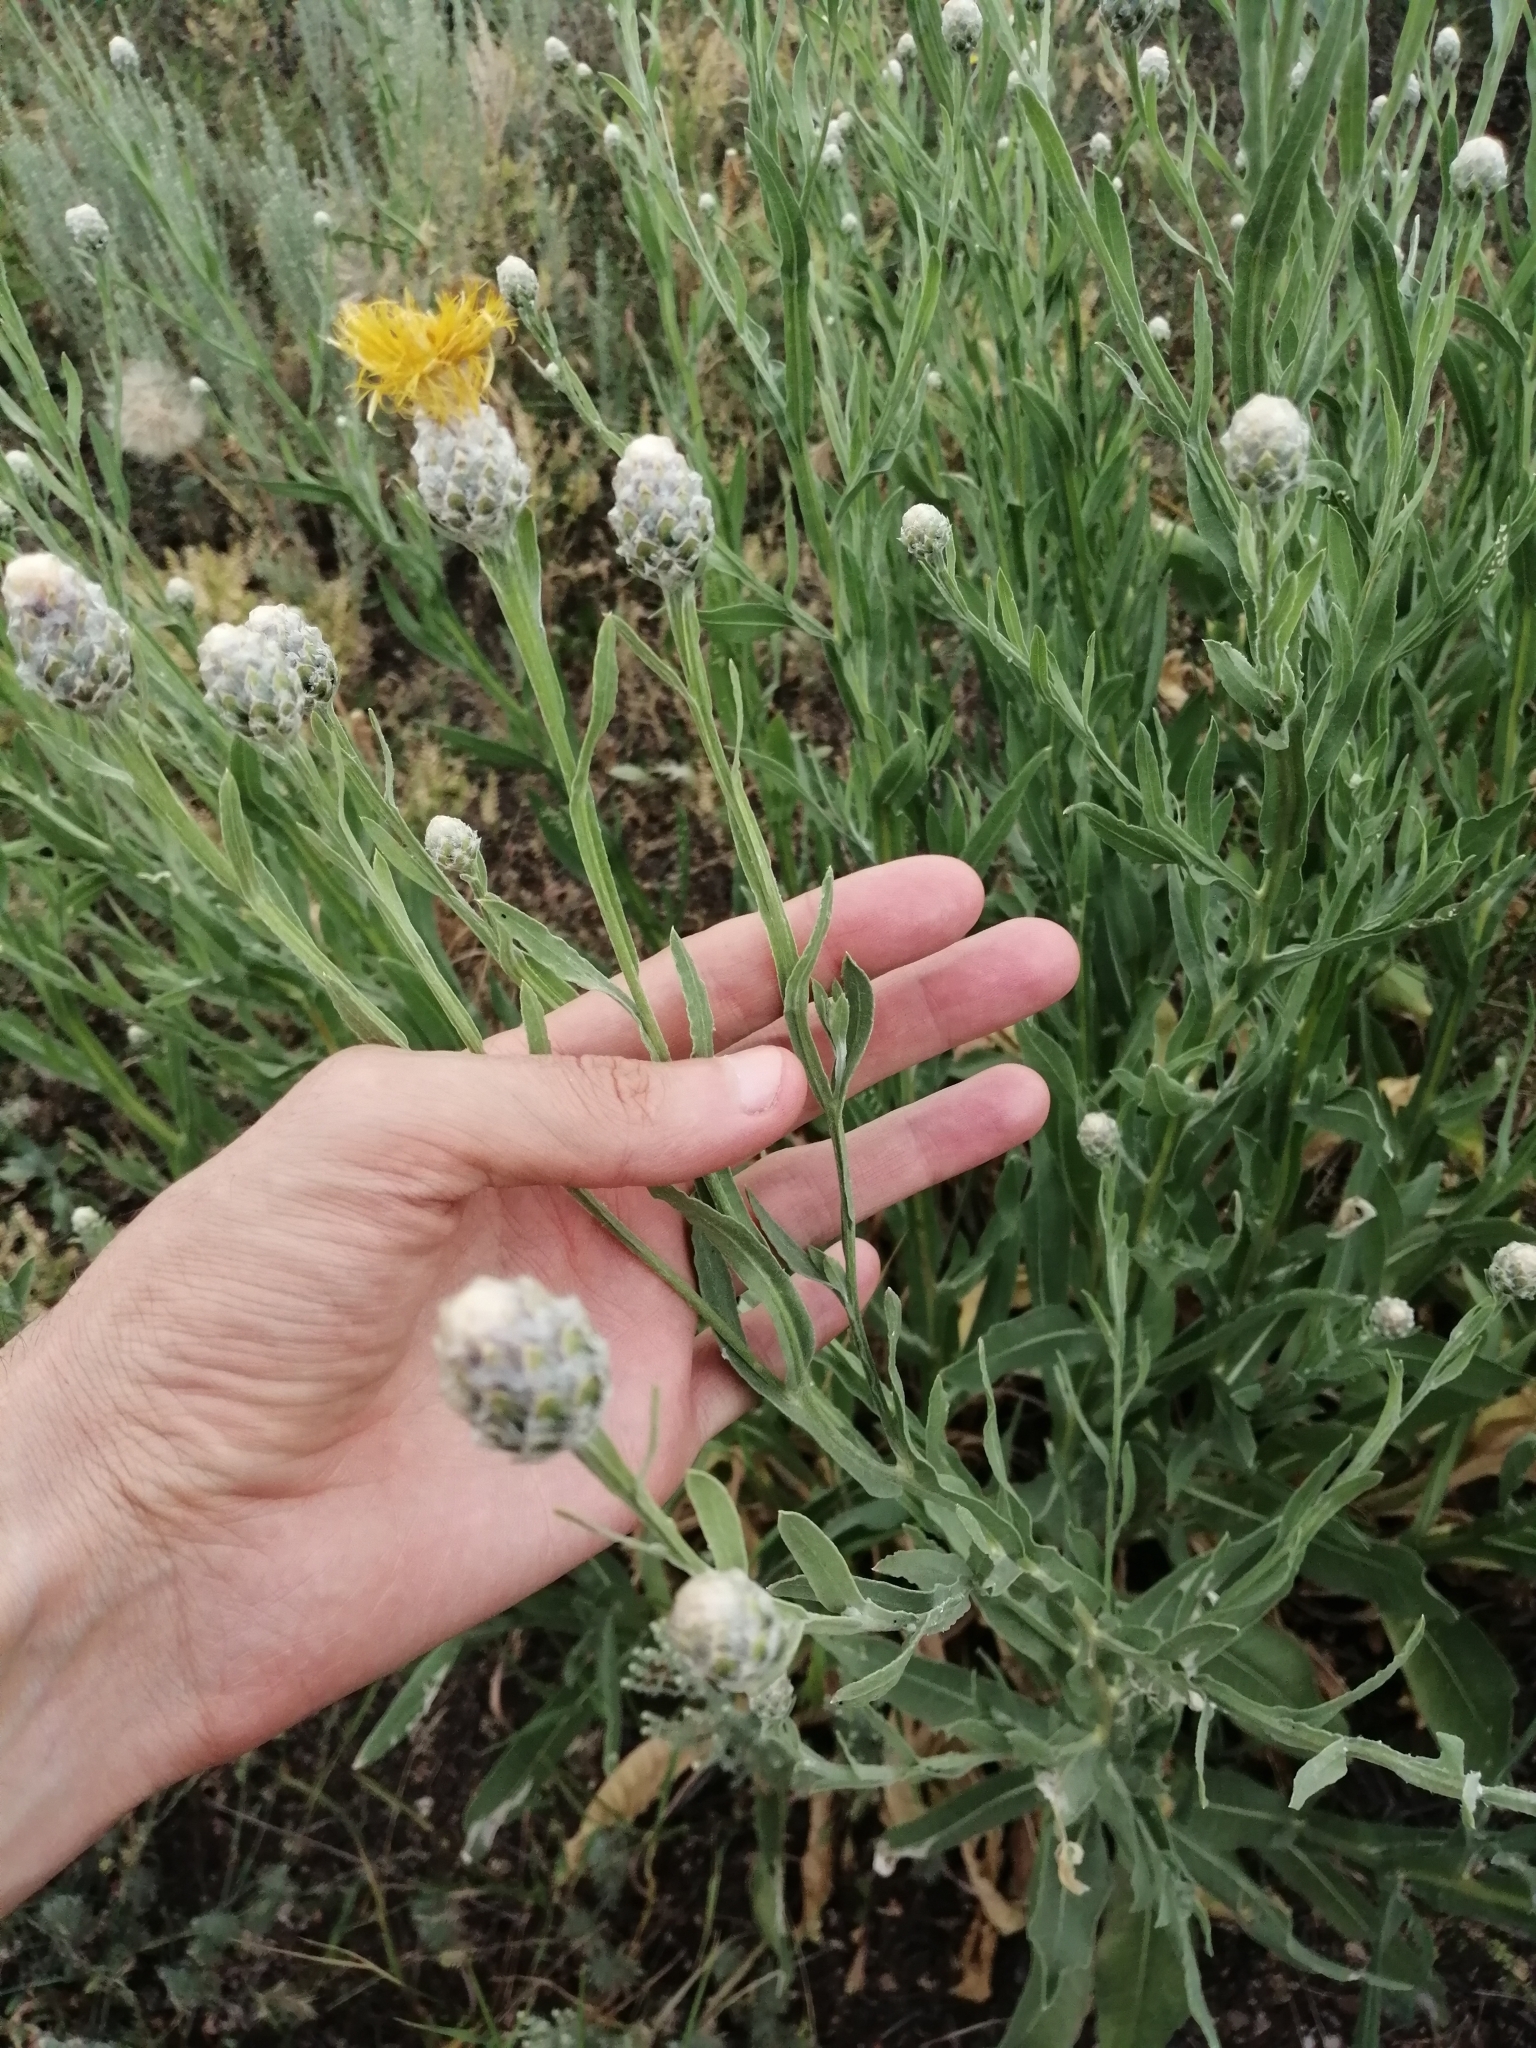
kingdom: Plantae
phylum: Tracheophyta
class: Magnoliopsida
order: Asterales
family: Asteraceae
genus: Centaurea
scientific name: Centaurea glastifolia
